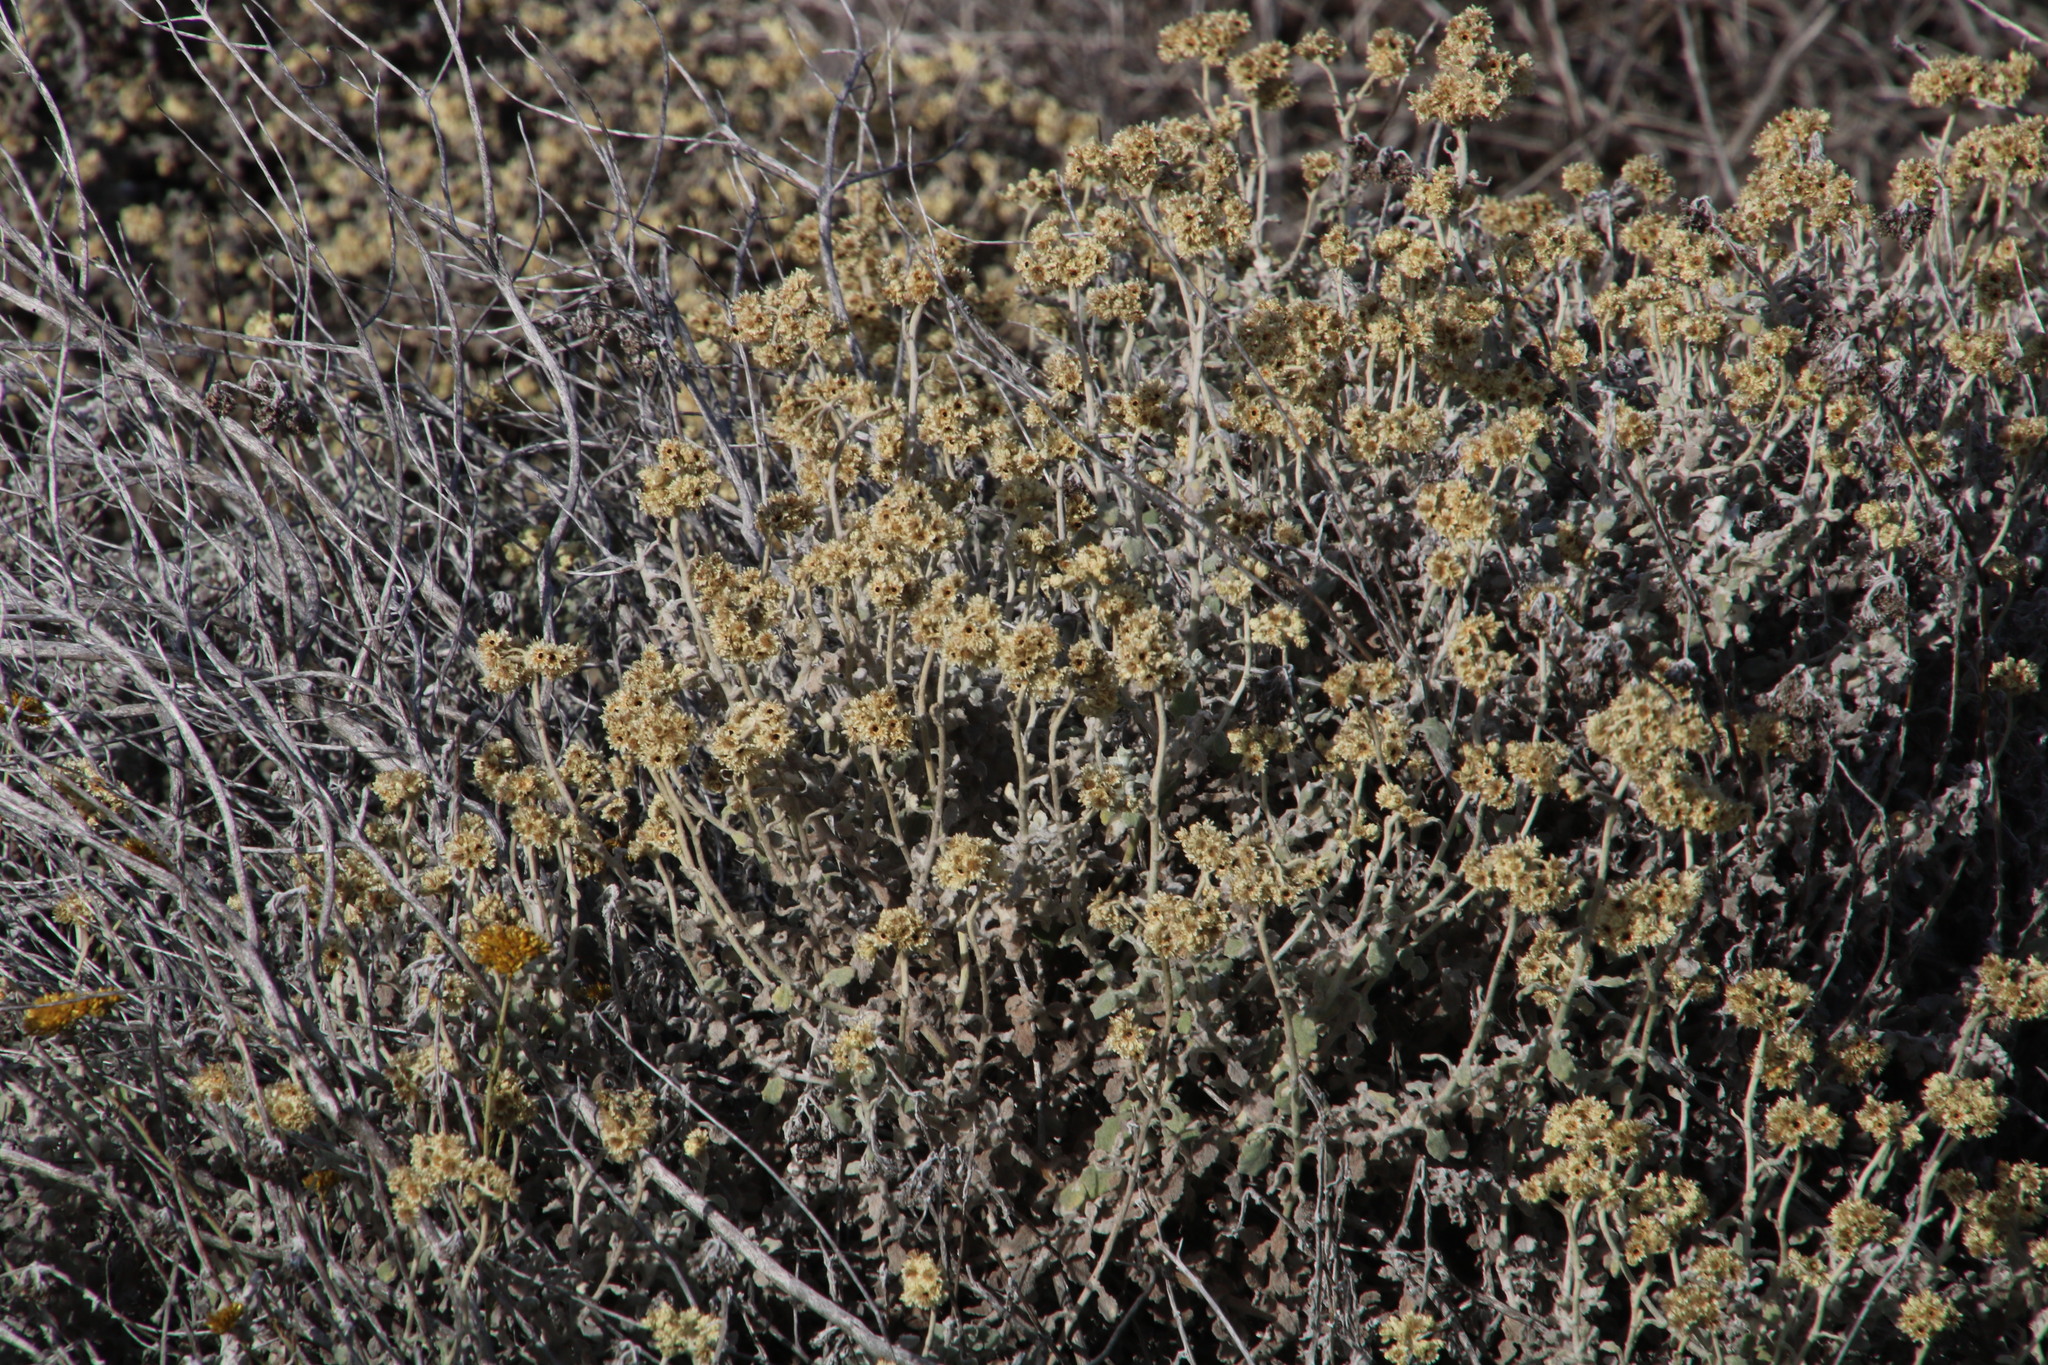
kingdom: Plantae
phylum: Tracheophyta
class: Magnoliopsida
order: Asterales
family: Asteraceae
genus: Helichrysum
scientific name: Helichrysum patulum
